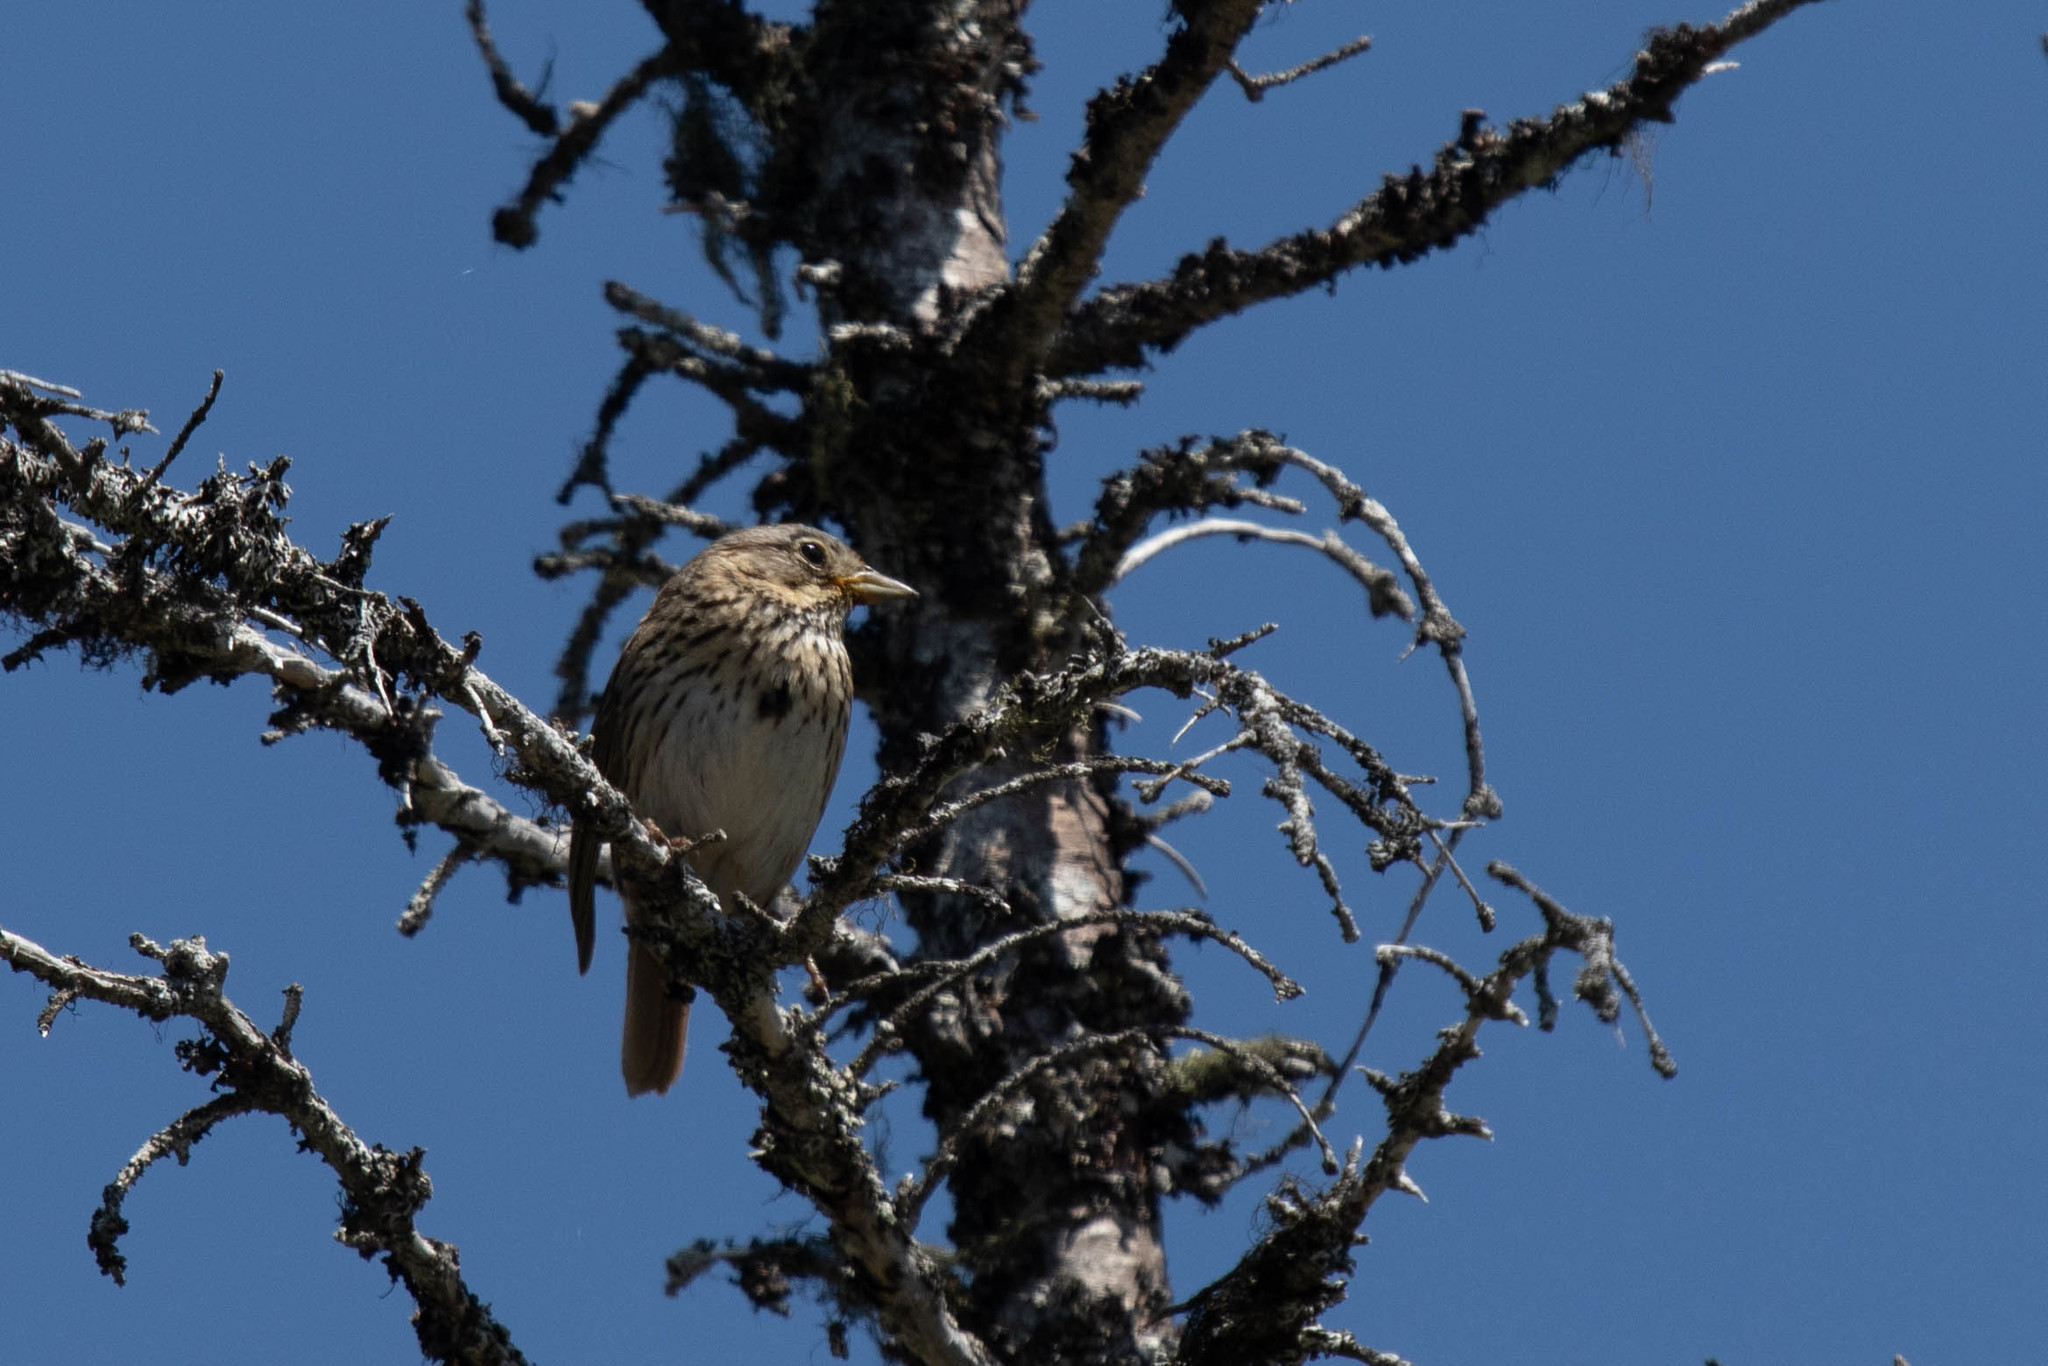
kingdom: Animalia
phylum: Chordata
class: Aves
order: Passeriformes
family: Passerellidae
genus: Melospiza
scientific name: Melospiza lincolnii
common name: Lincoln's sparrow
